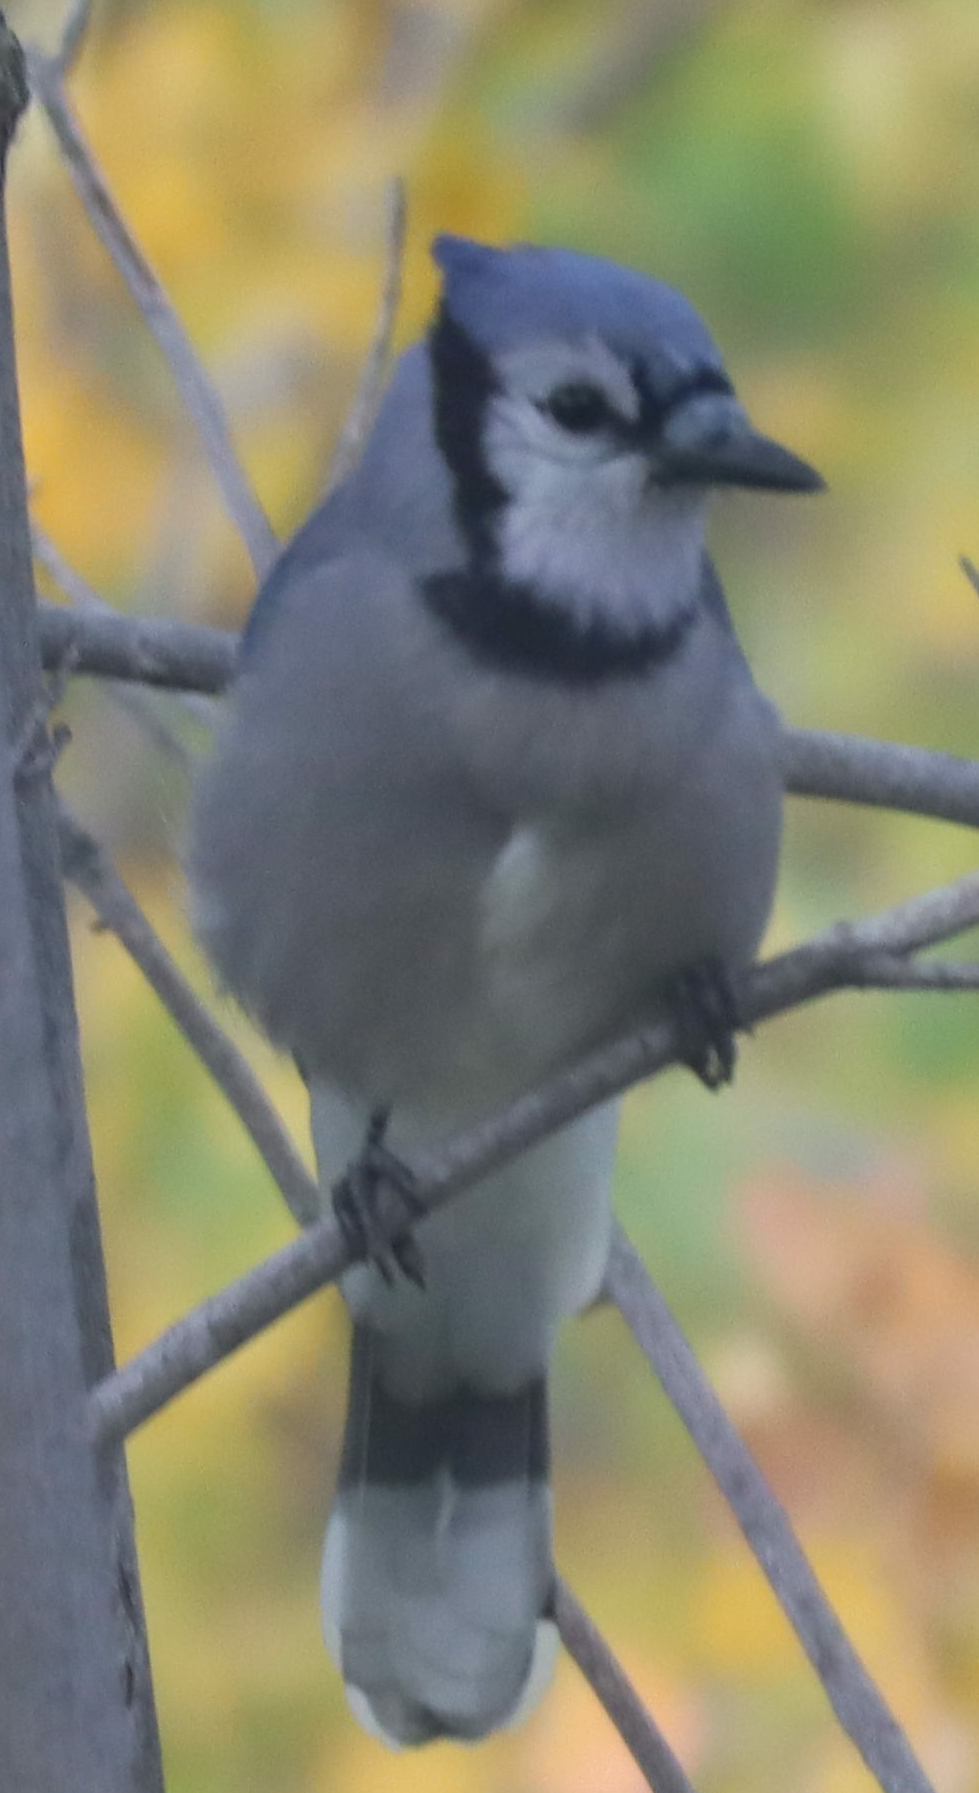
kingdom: Animalia
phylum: Chordata
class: Aves
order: Passeriformes
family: Corvidae
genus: Cyanocitta
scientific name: Cyanocitta cristata
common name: Blue jay
